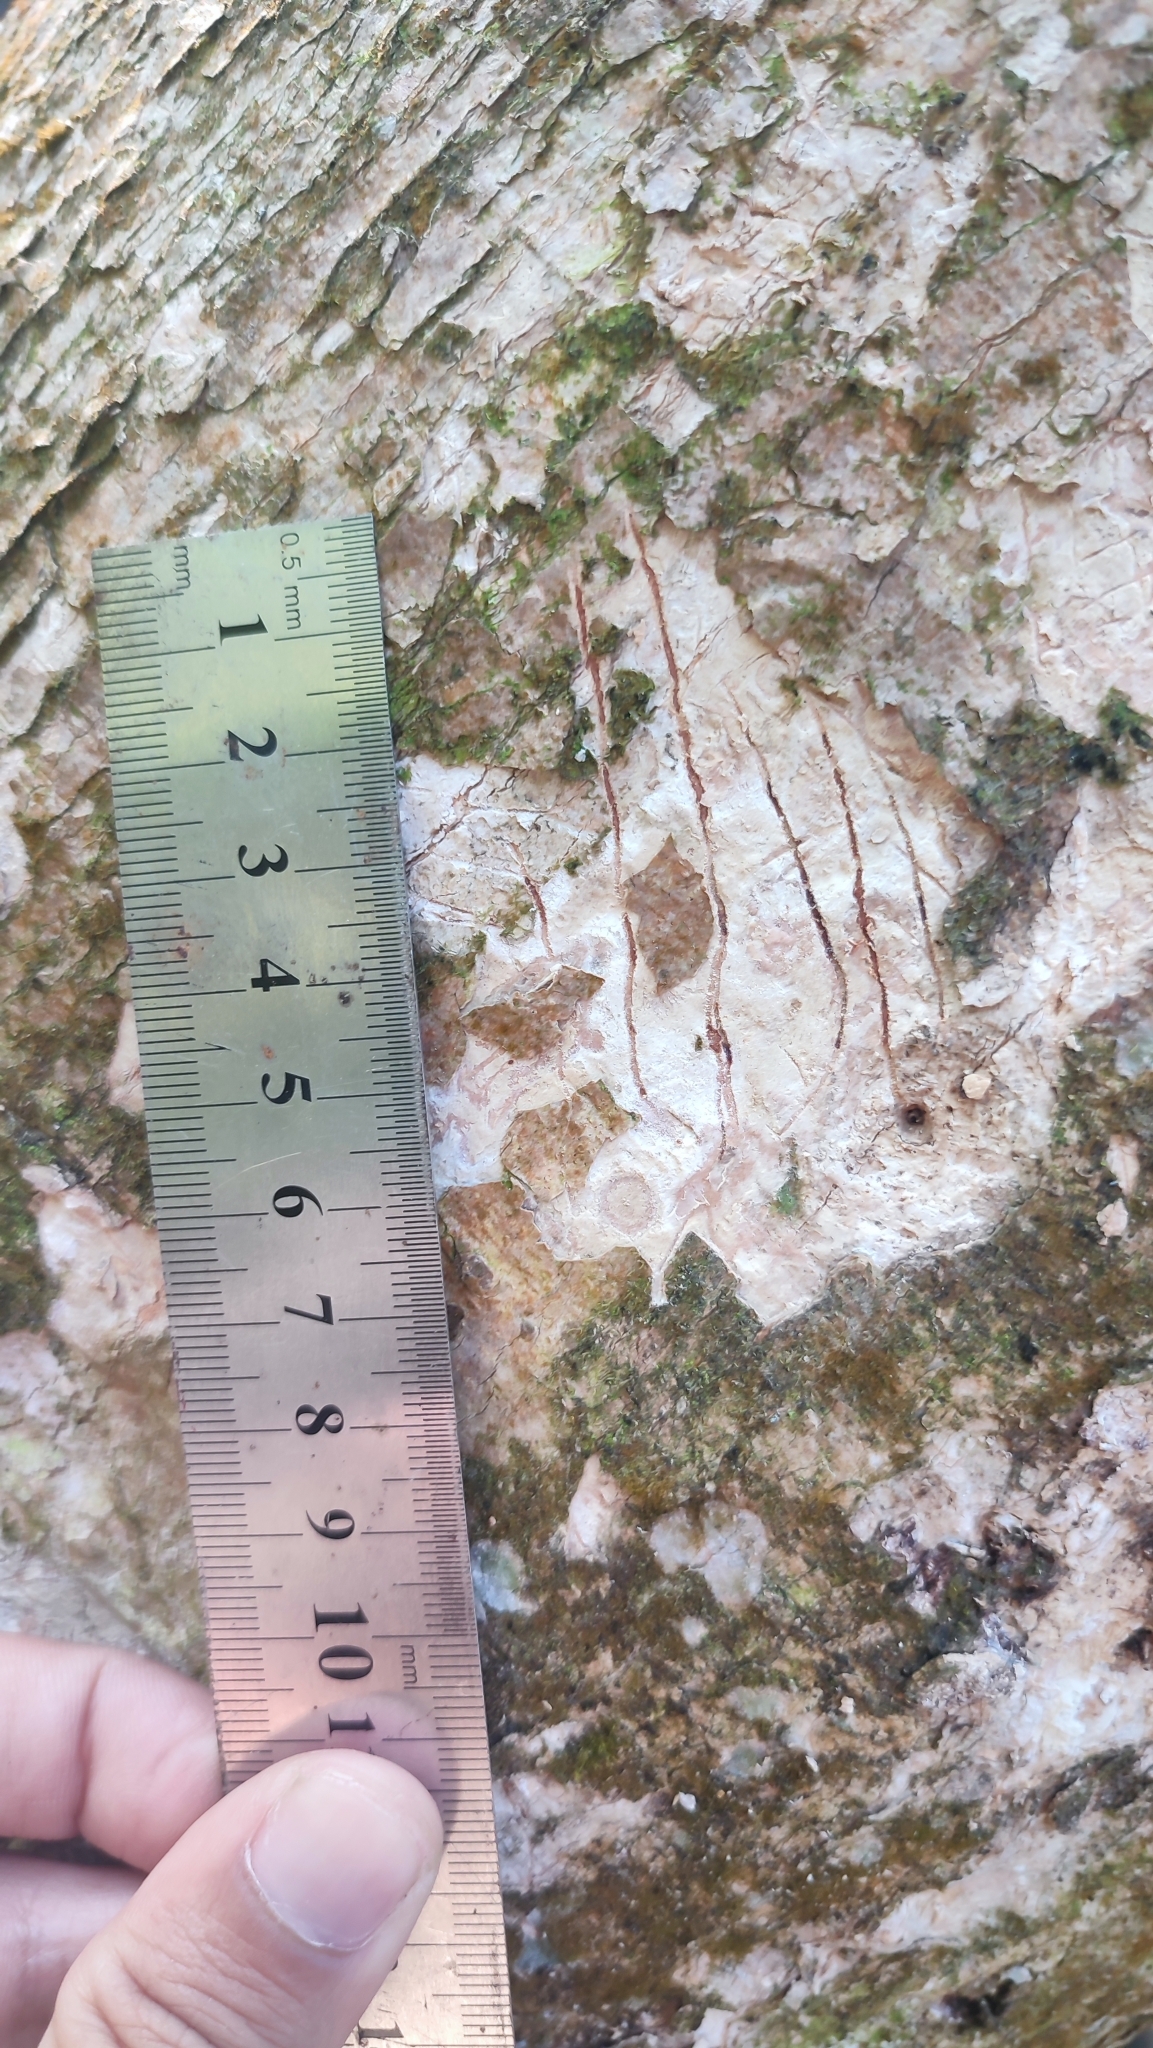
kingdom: Animalia
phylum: Chordata
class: Mammalia
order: Carnivora
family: Felidae
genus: Panthera
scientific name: Panthera pardus
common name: Leopard
